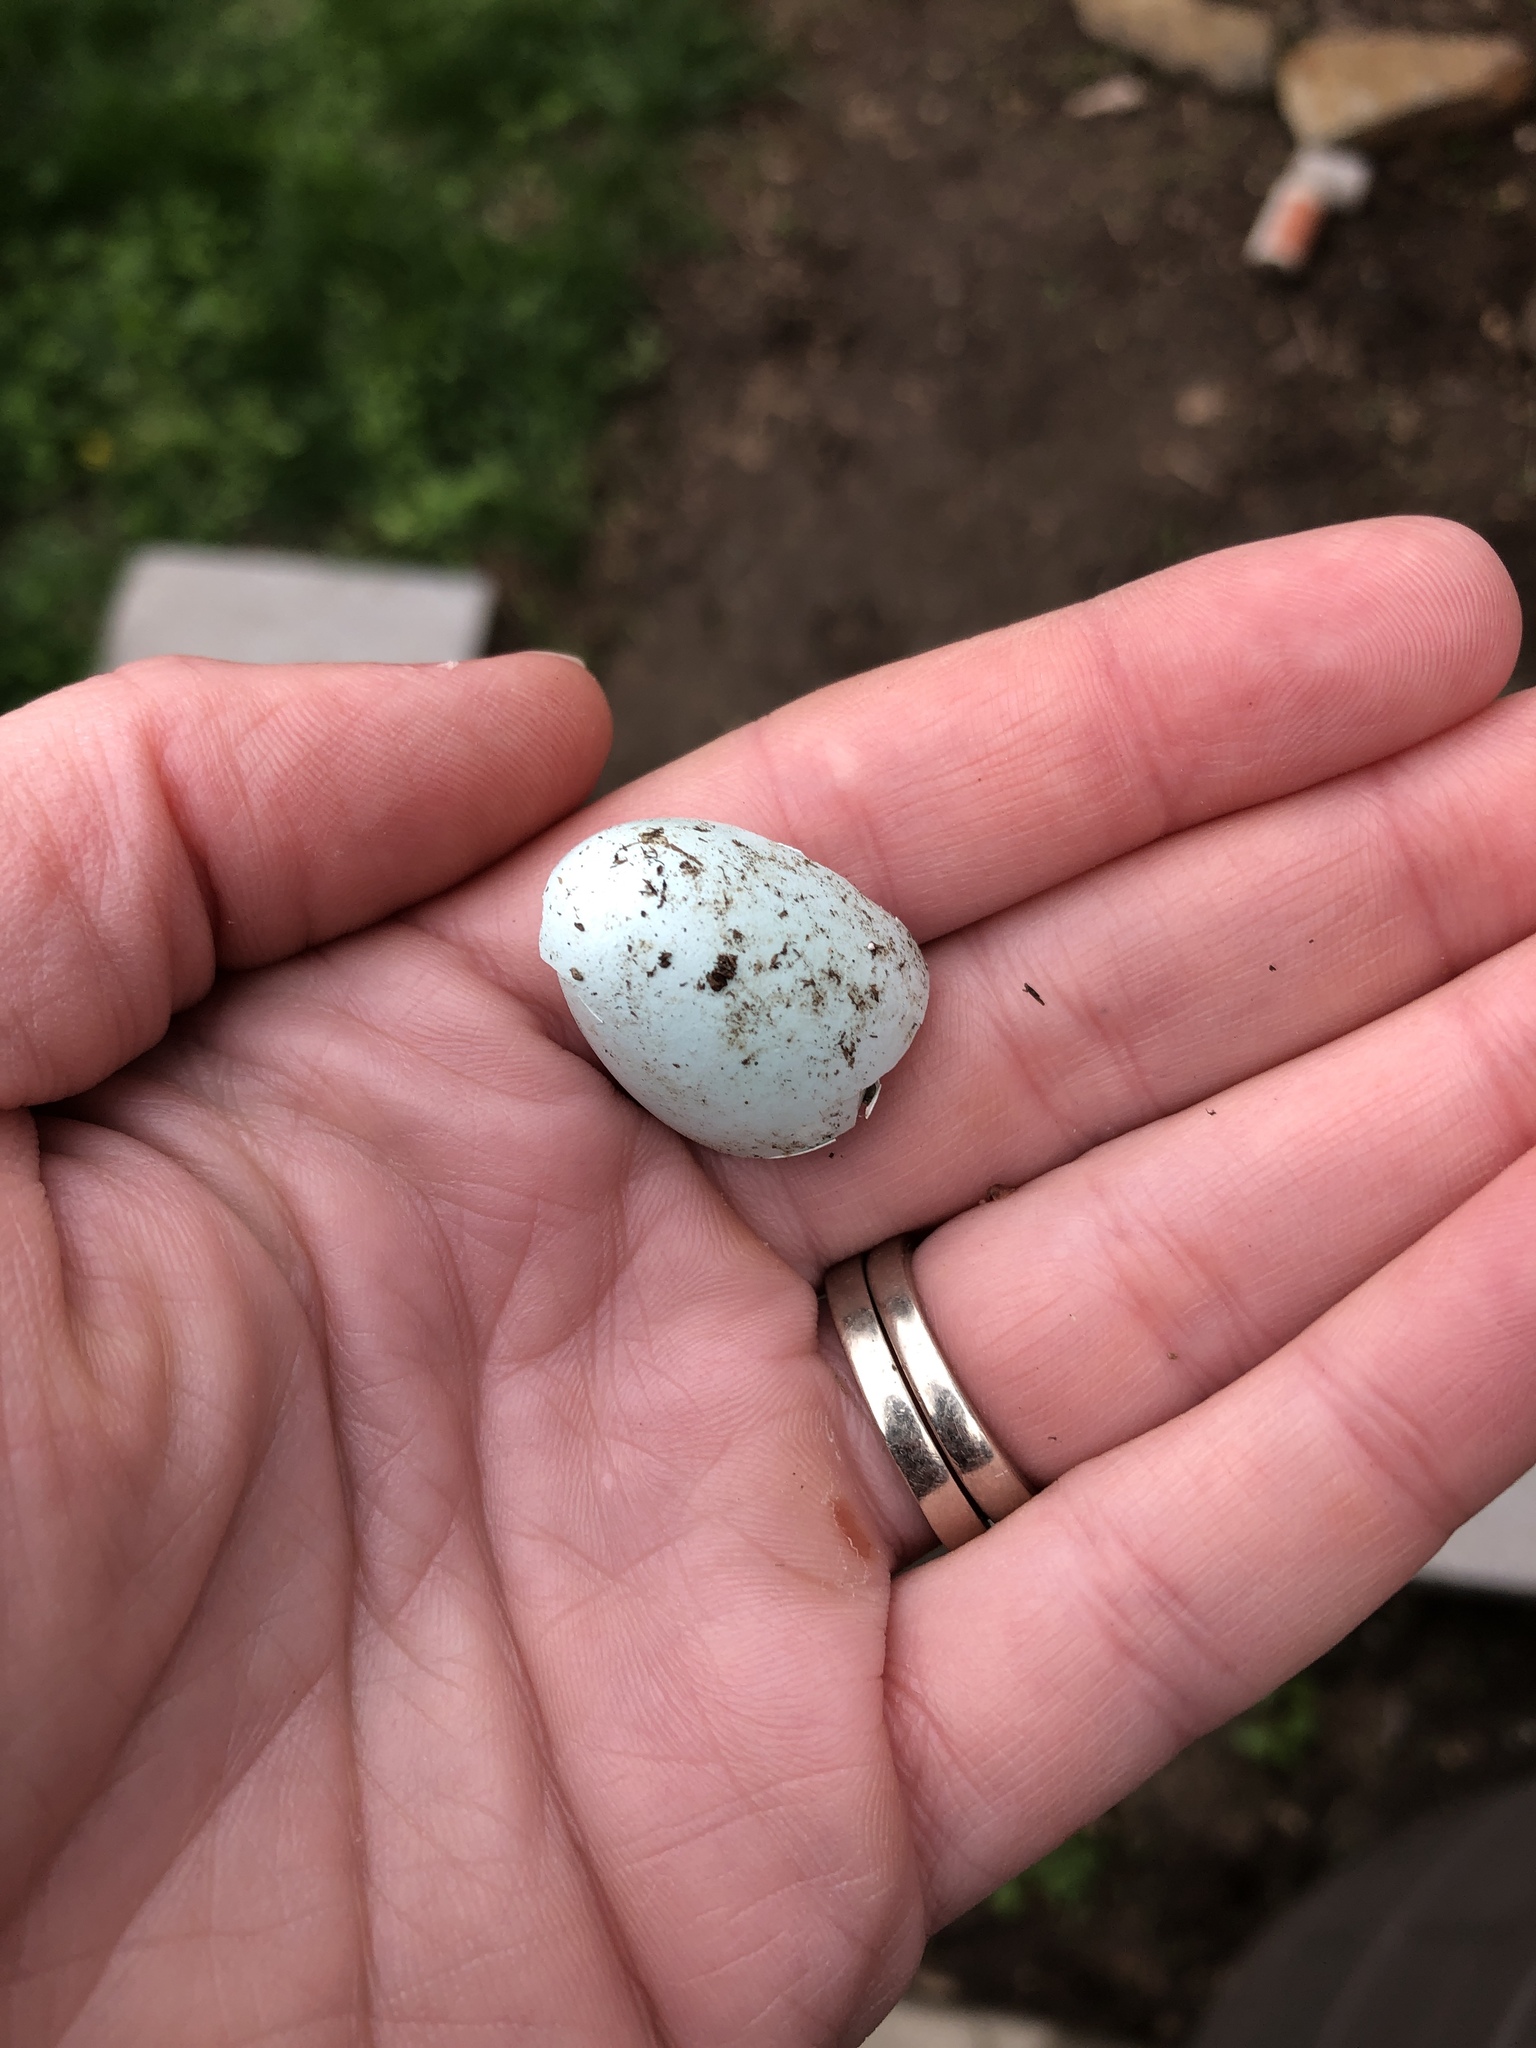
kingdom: Animalia
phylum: Chordata
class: Aves
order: Passeriformes
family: Turdidae
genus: Turdus
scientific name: Turdus migratorius
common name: American robin
